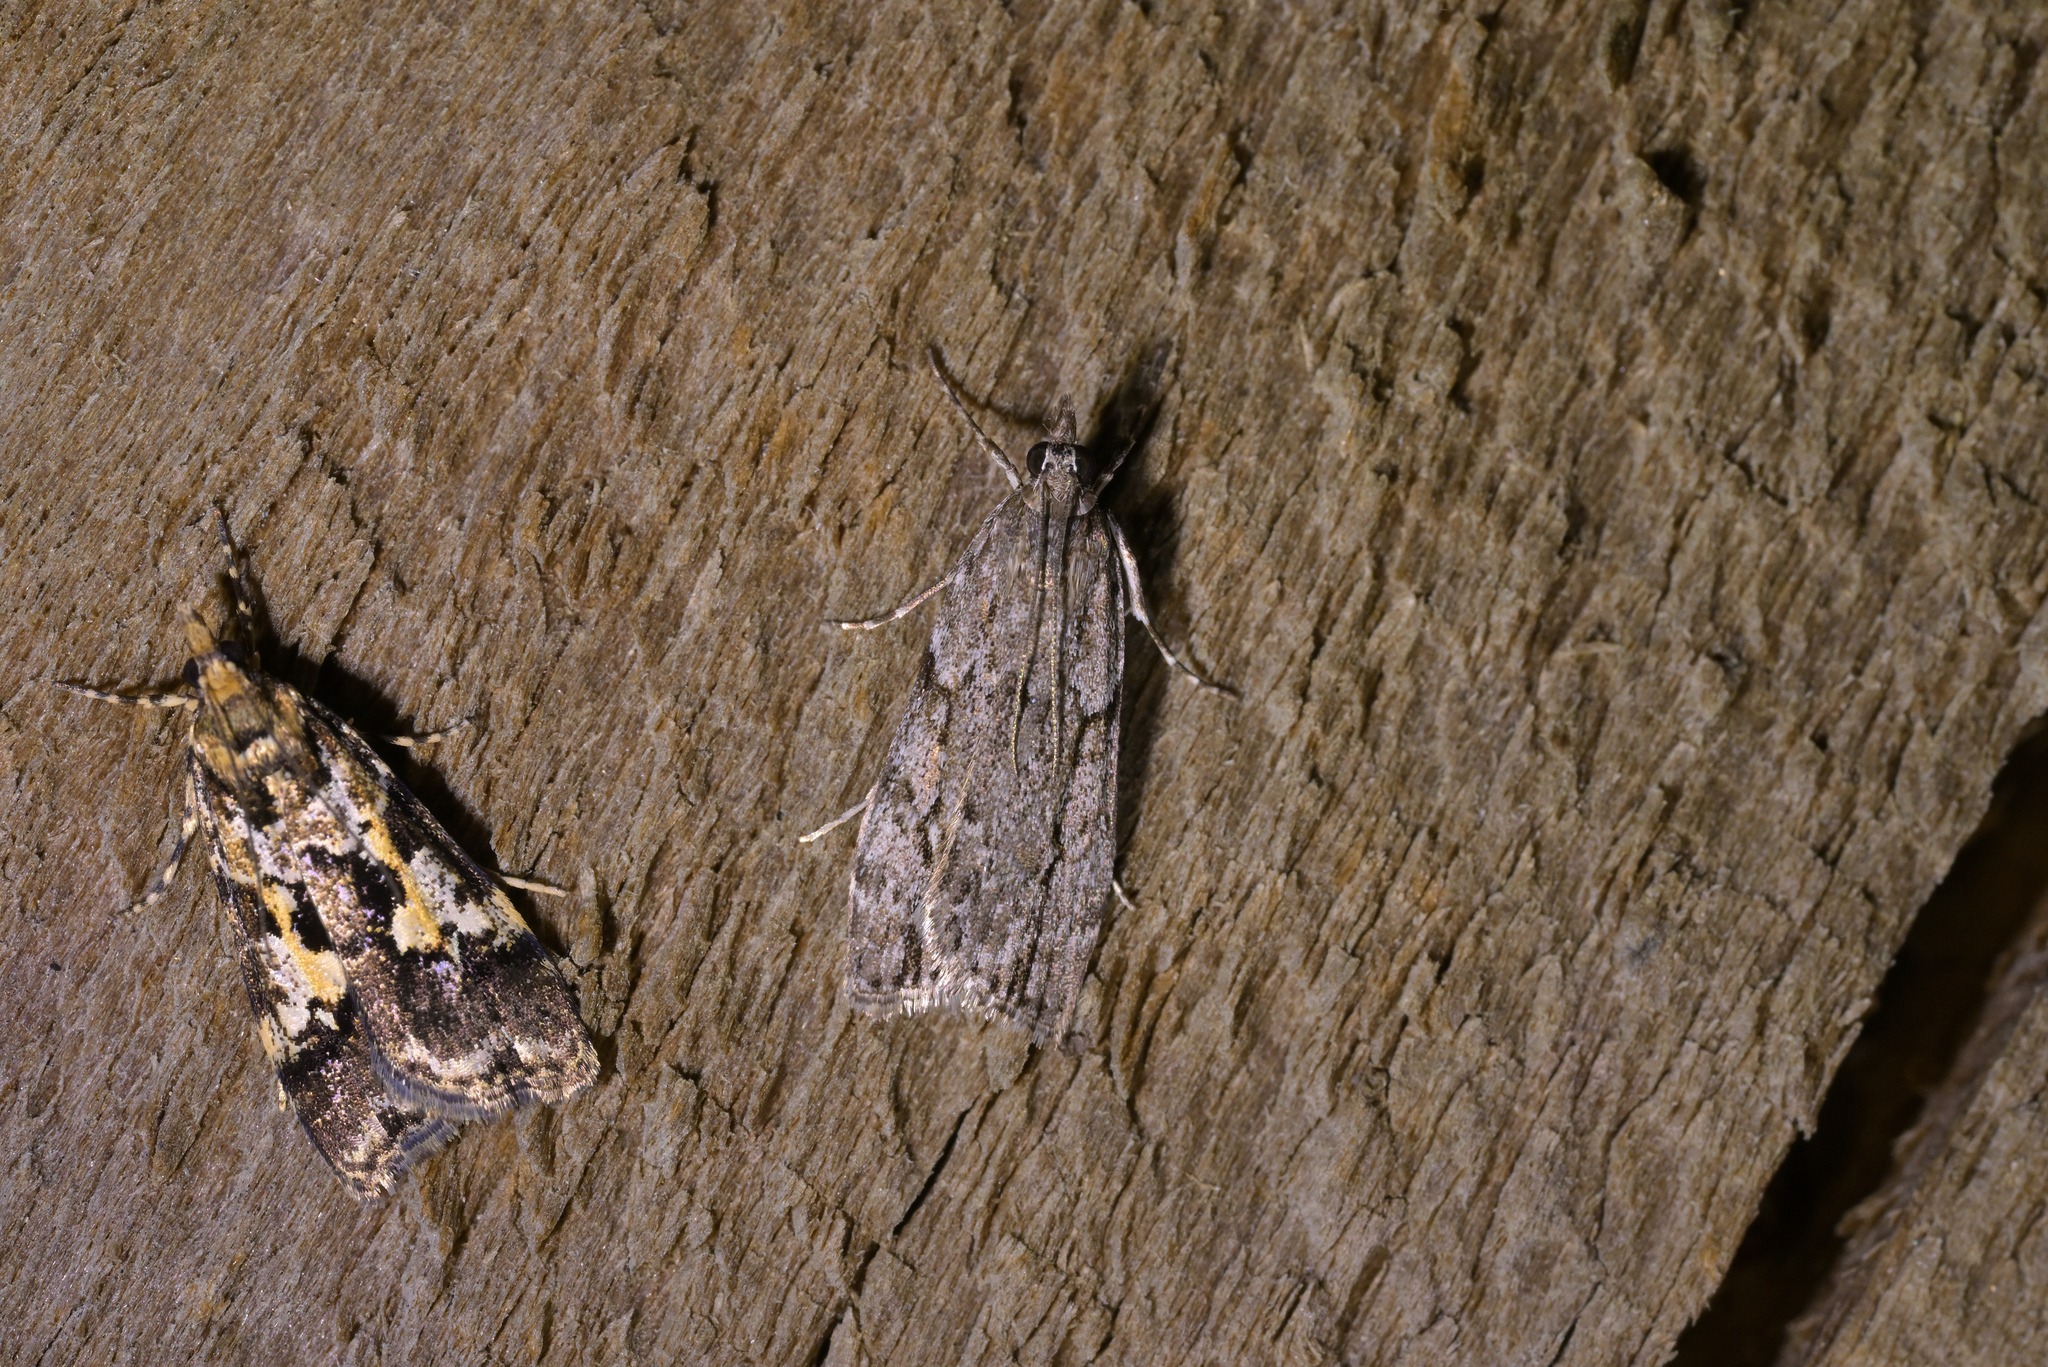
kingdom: Animalia
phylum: Arthropoda
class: Insecta
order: Lepidoptera
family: Crambidae
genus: Eudonia
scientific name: Eudonia bisinualis
